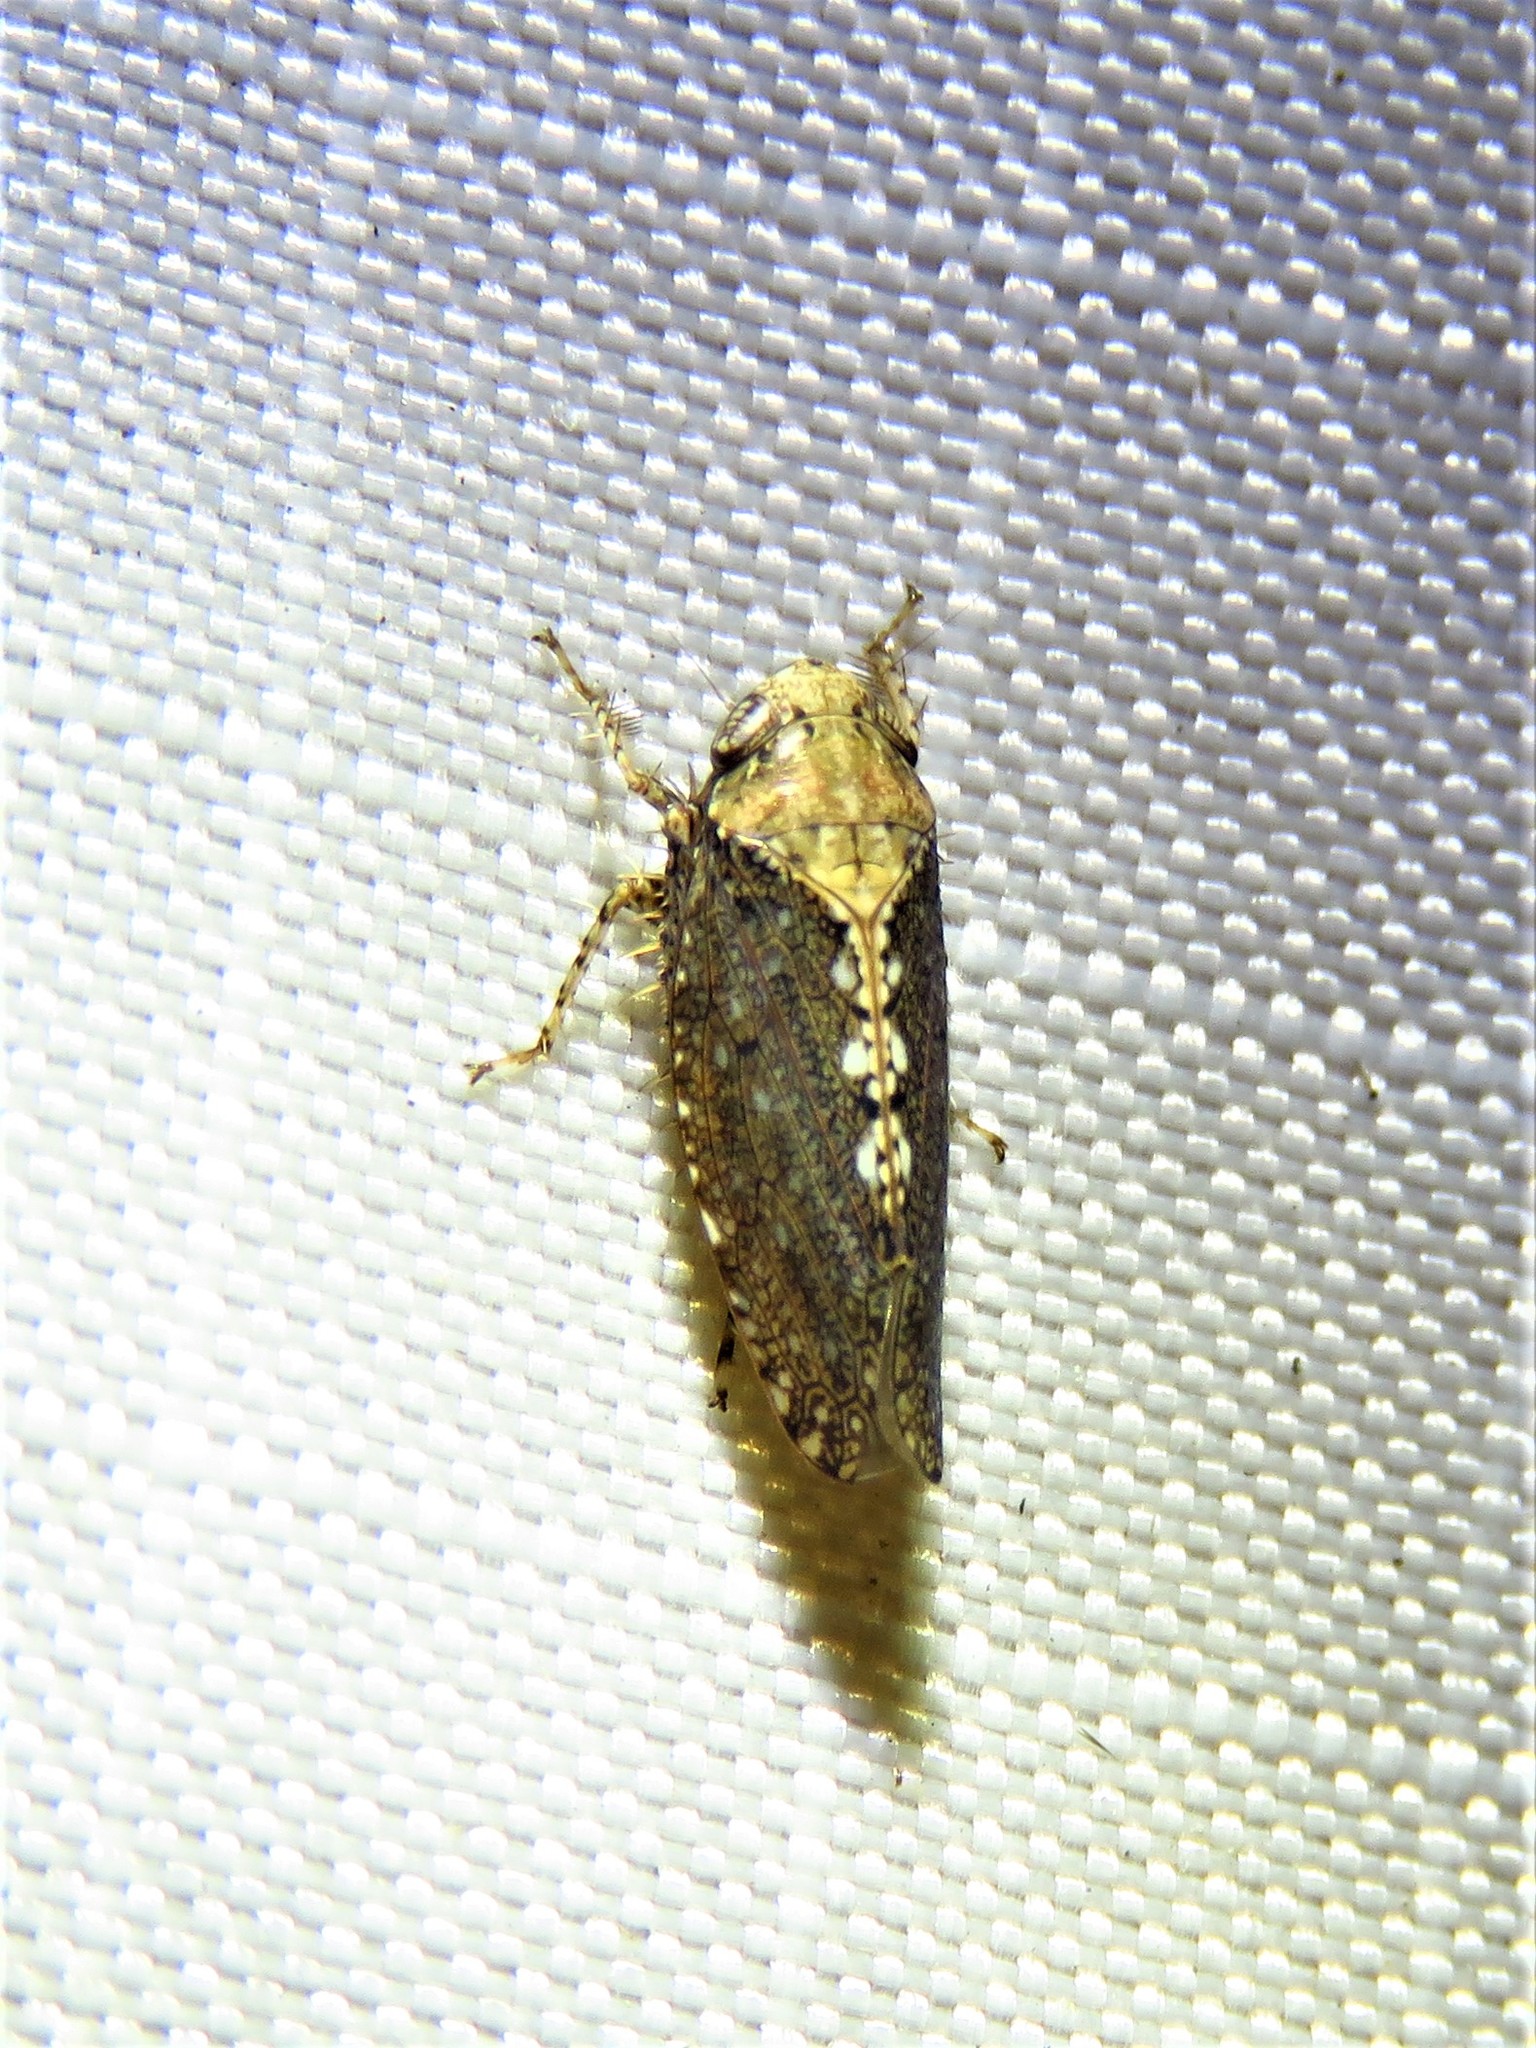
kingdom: Animalia
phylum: Arthropoda
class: Insecta
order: Hemiptera
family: Cicadellidae
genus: Excultanus
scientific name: Excultanus excultus
